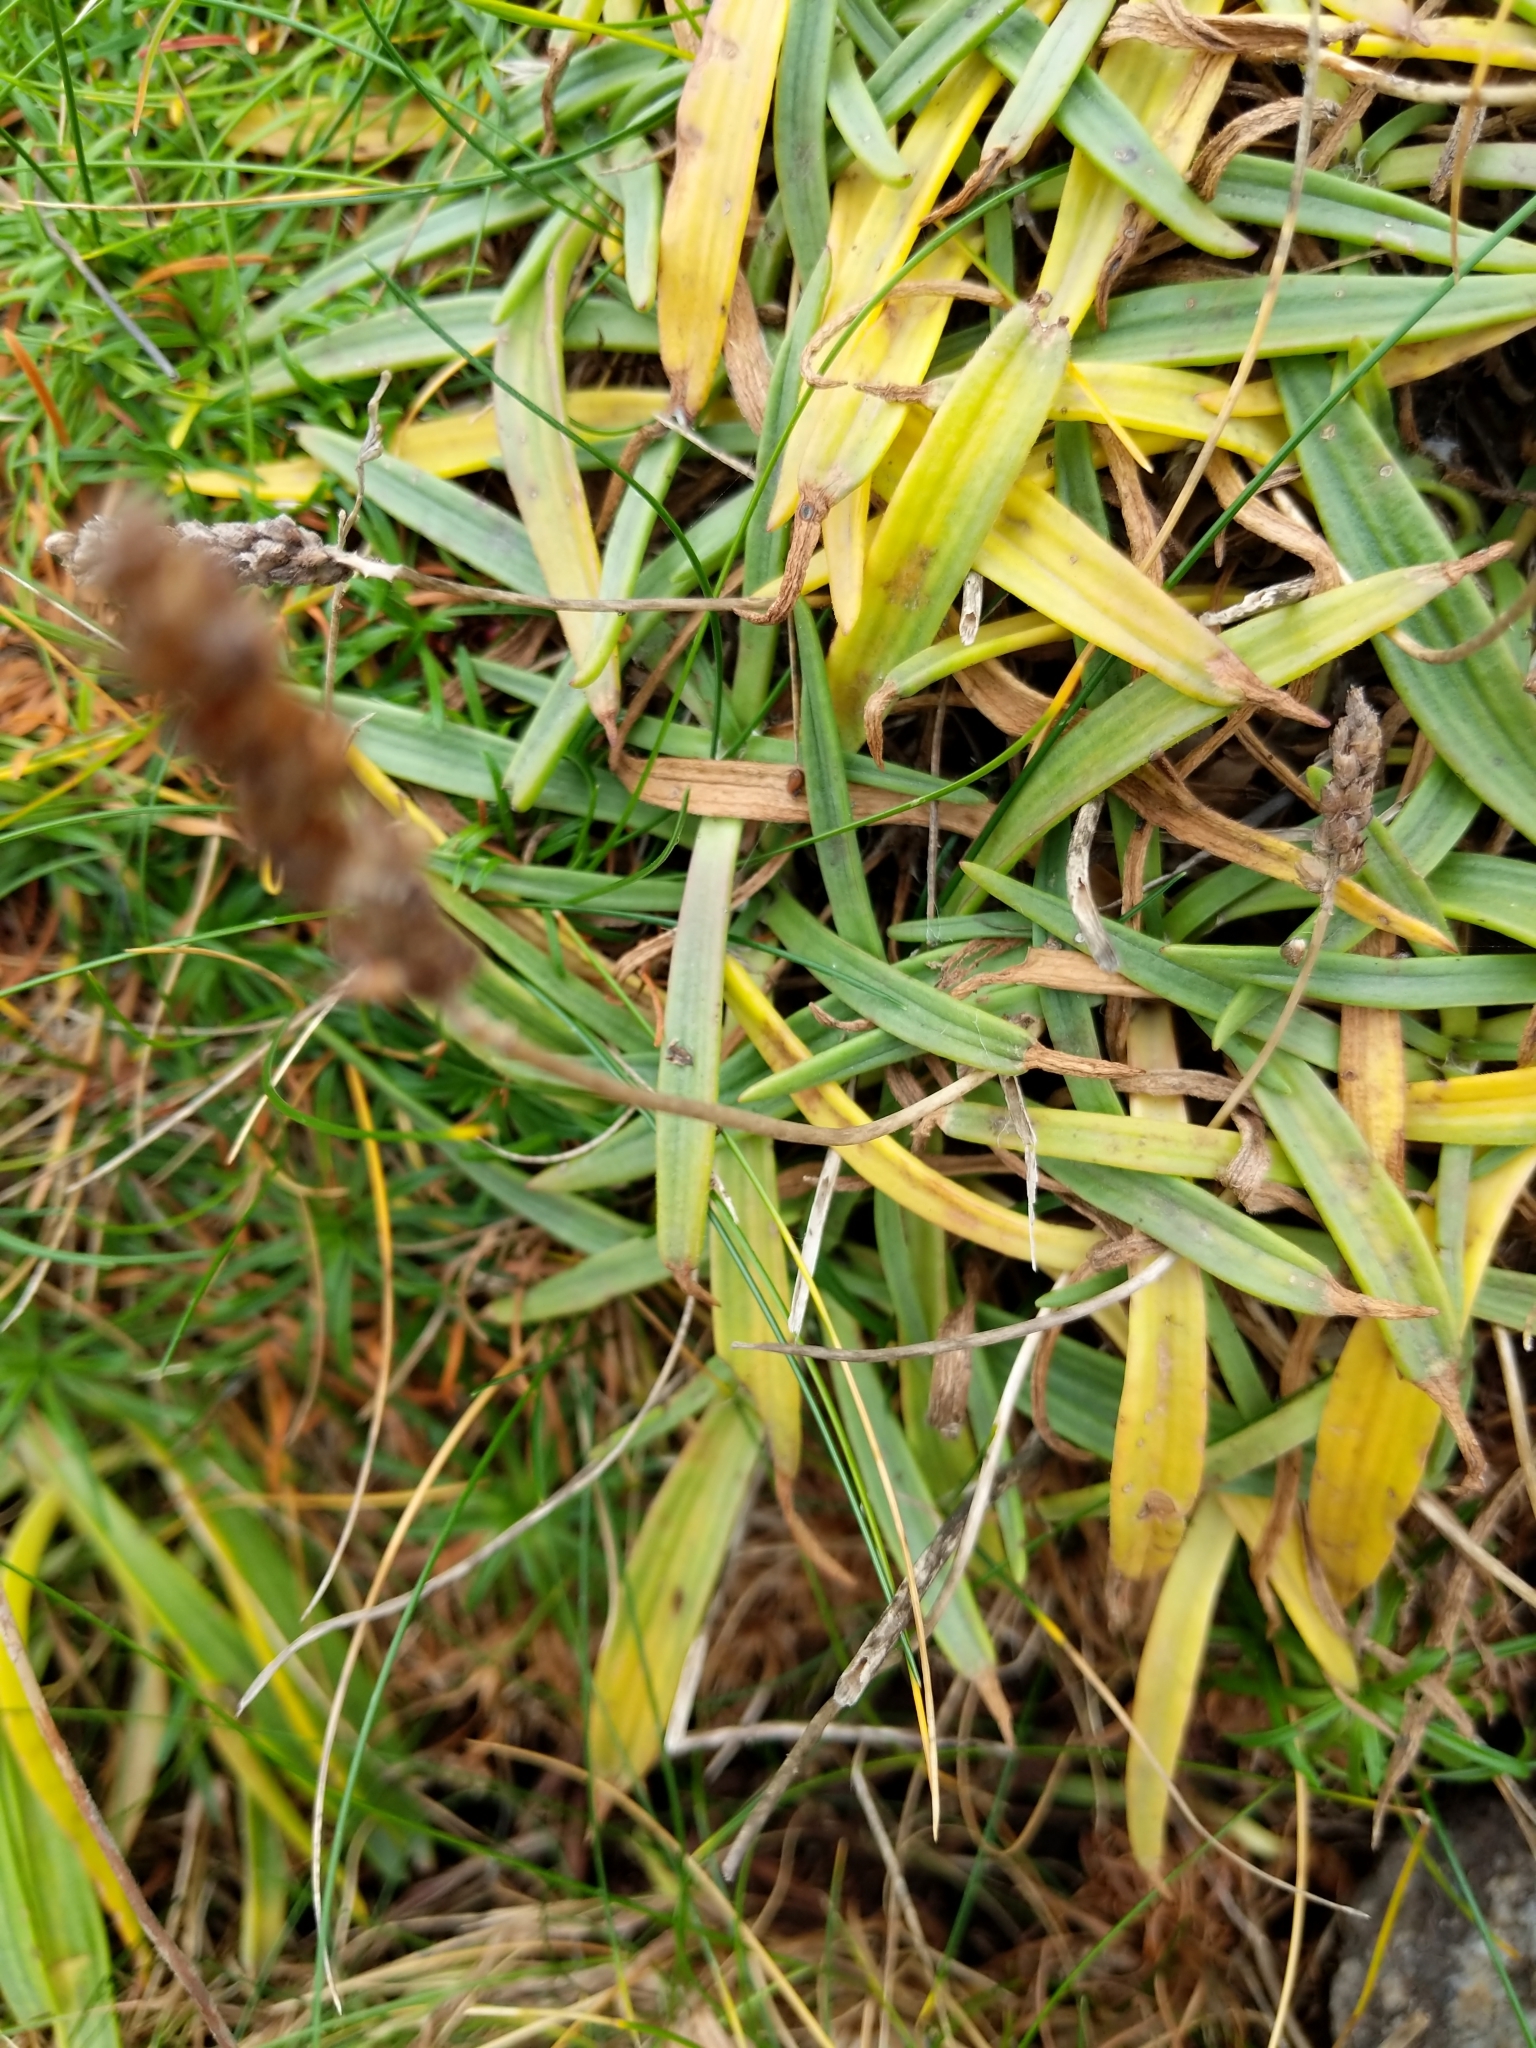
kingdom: Plantae
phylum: Tracheophyta
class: Magnoliopsida
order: Lamiales
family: Plantaginaceae
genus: Plantago
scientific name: Plantago maritima
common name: Sea plantain
